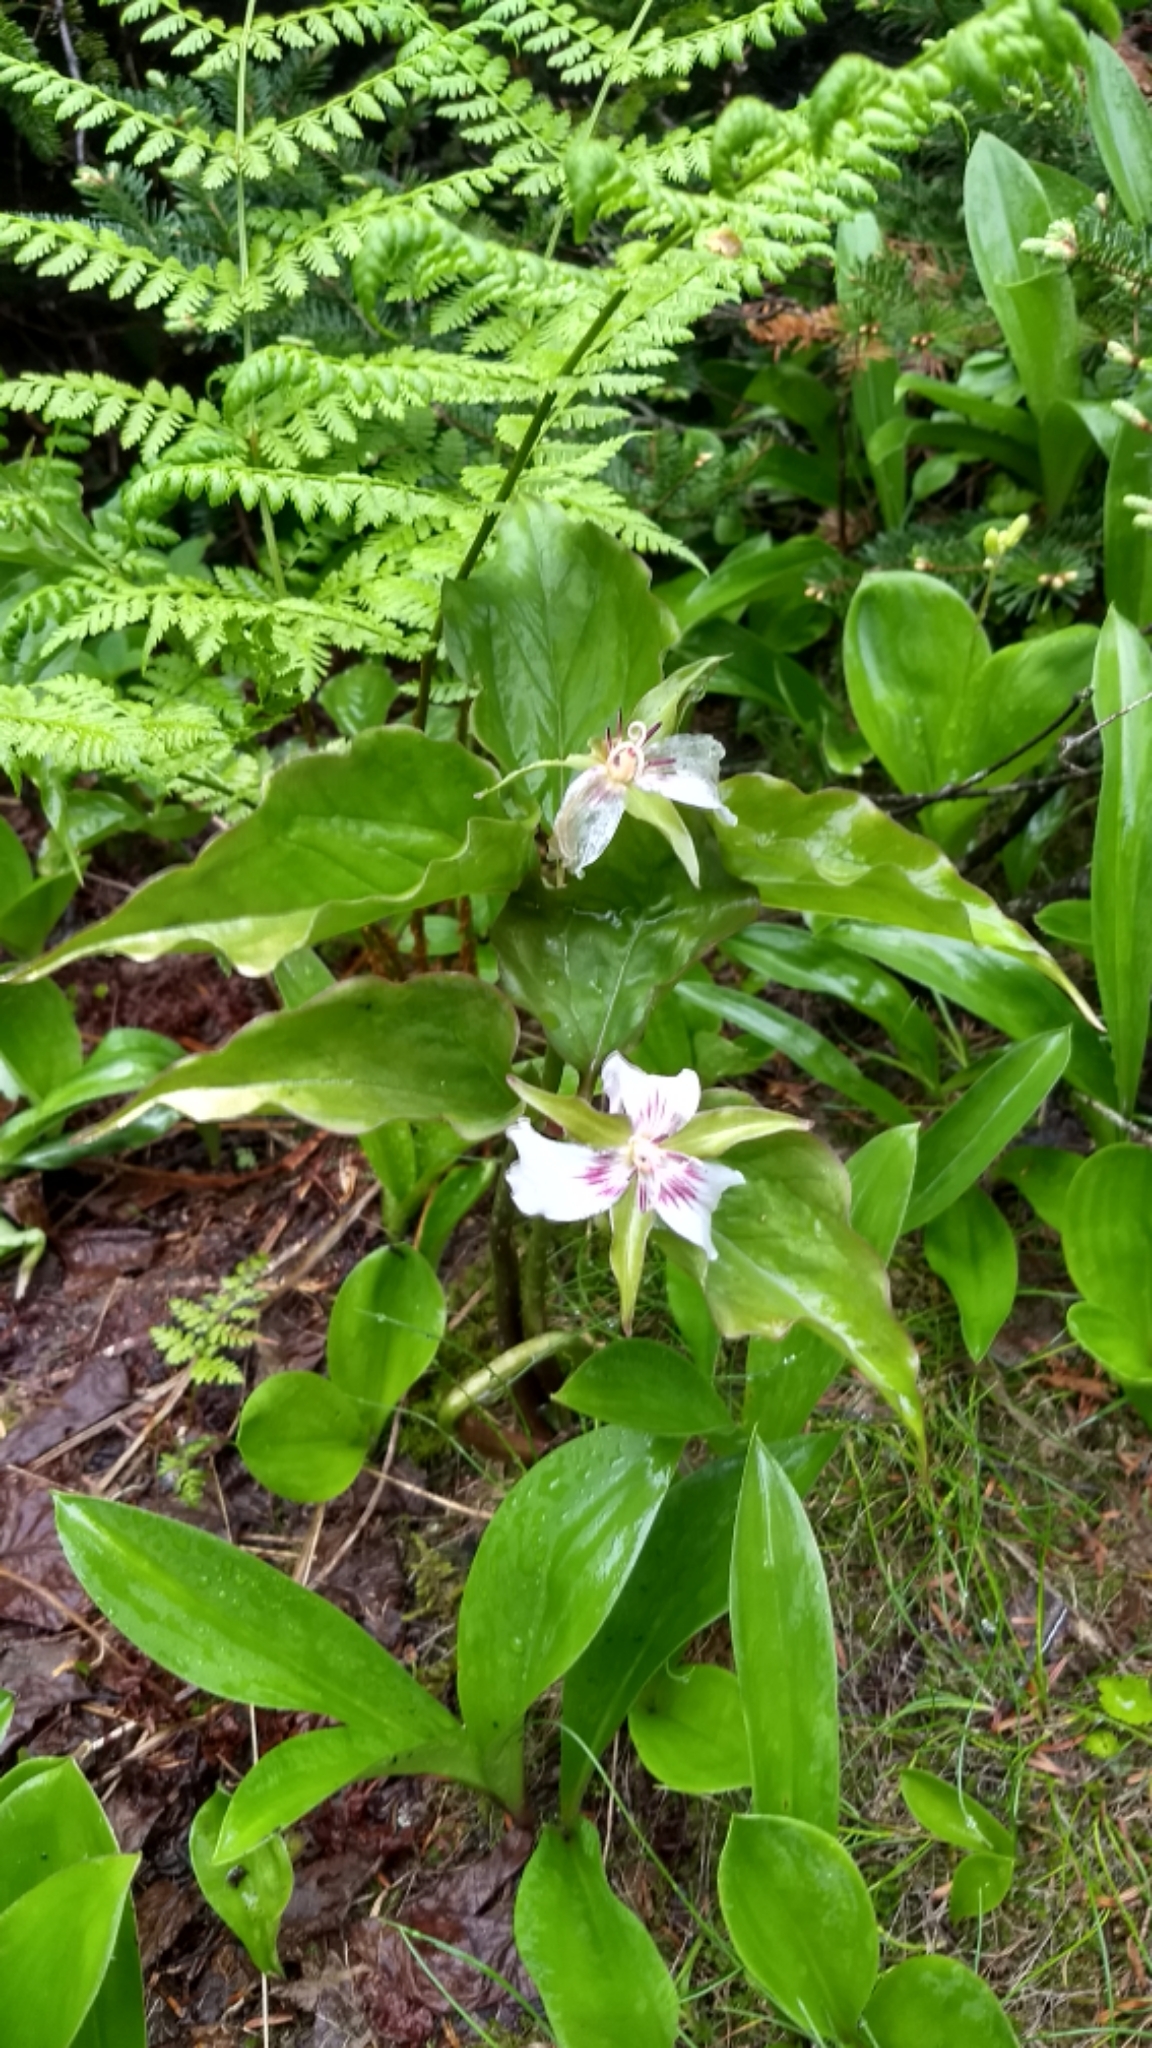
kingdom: Plantae
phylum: Tracheophyta
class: Liliopsida
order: Liliales
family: Melanthiaceae
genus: Trillium
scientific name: Trillium undulatum
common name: Paint trillium
